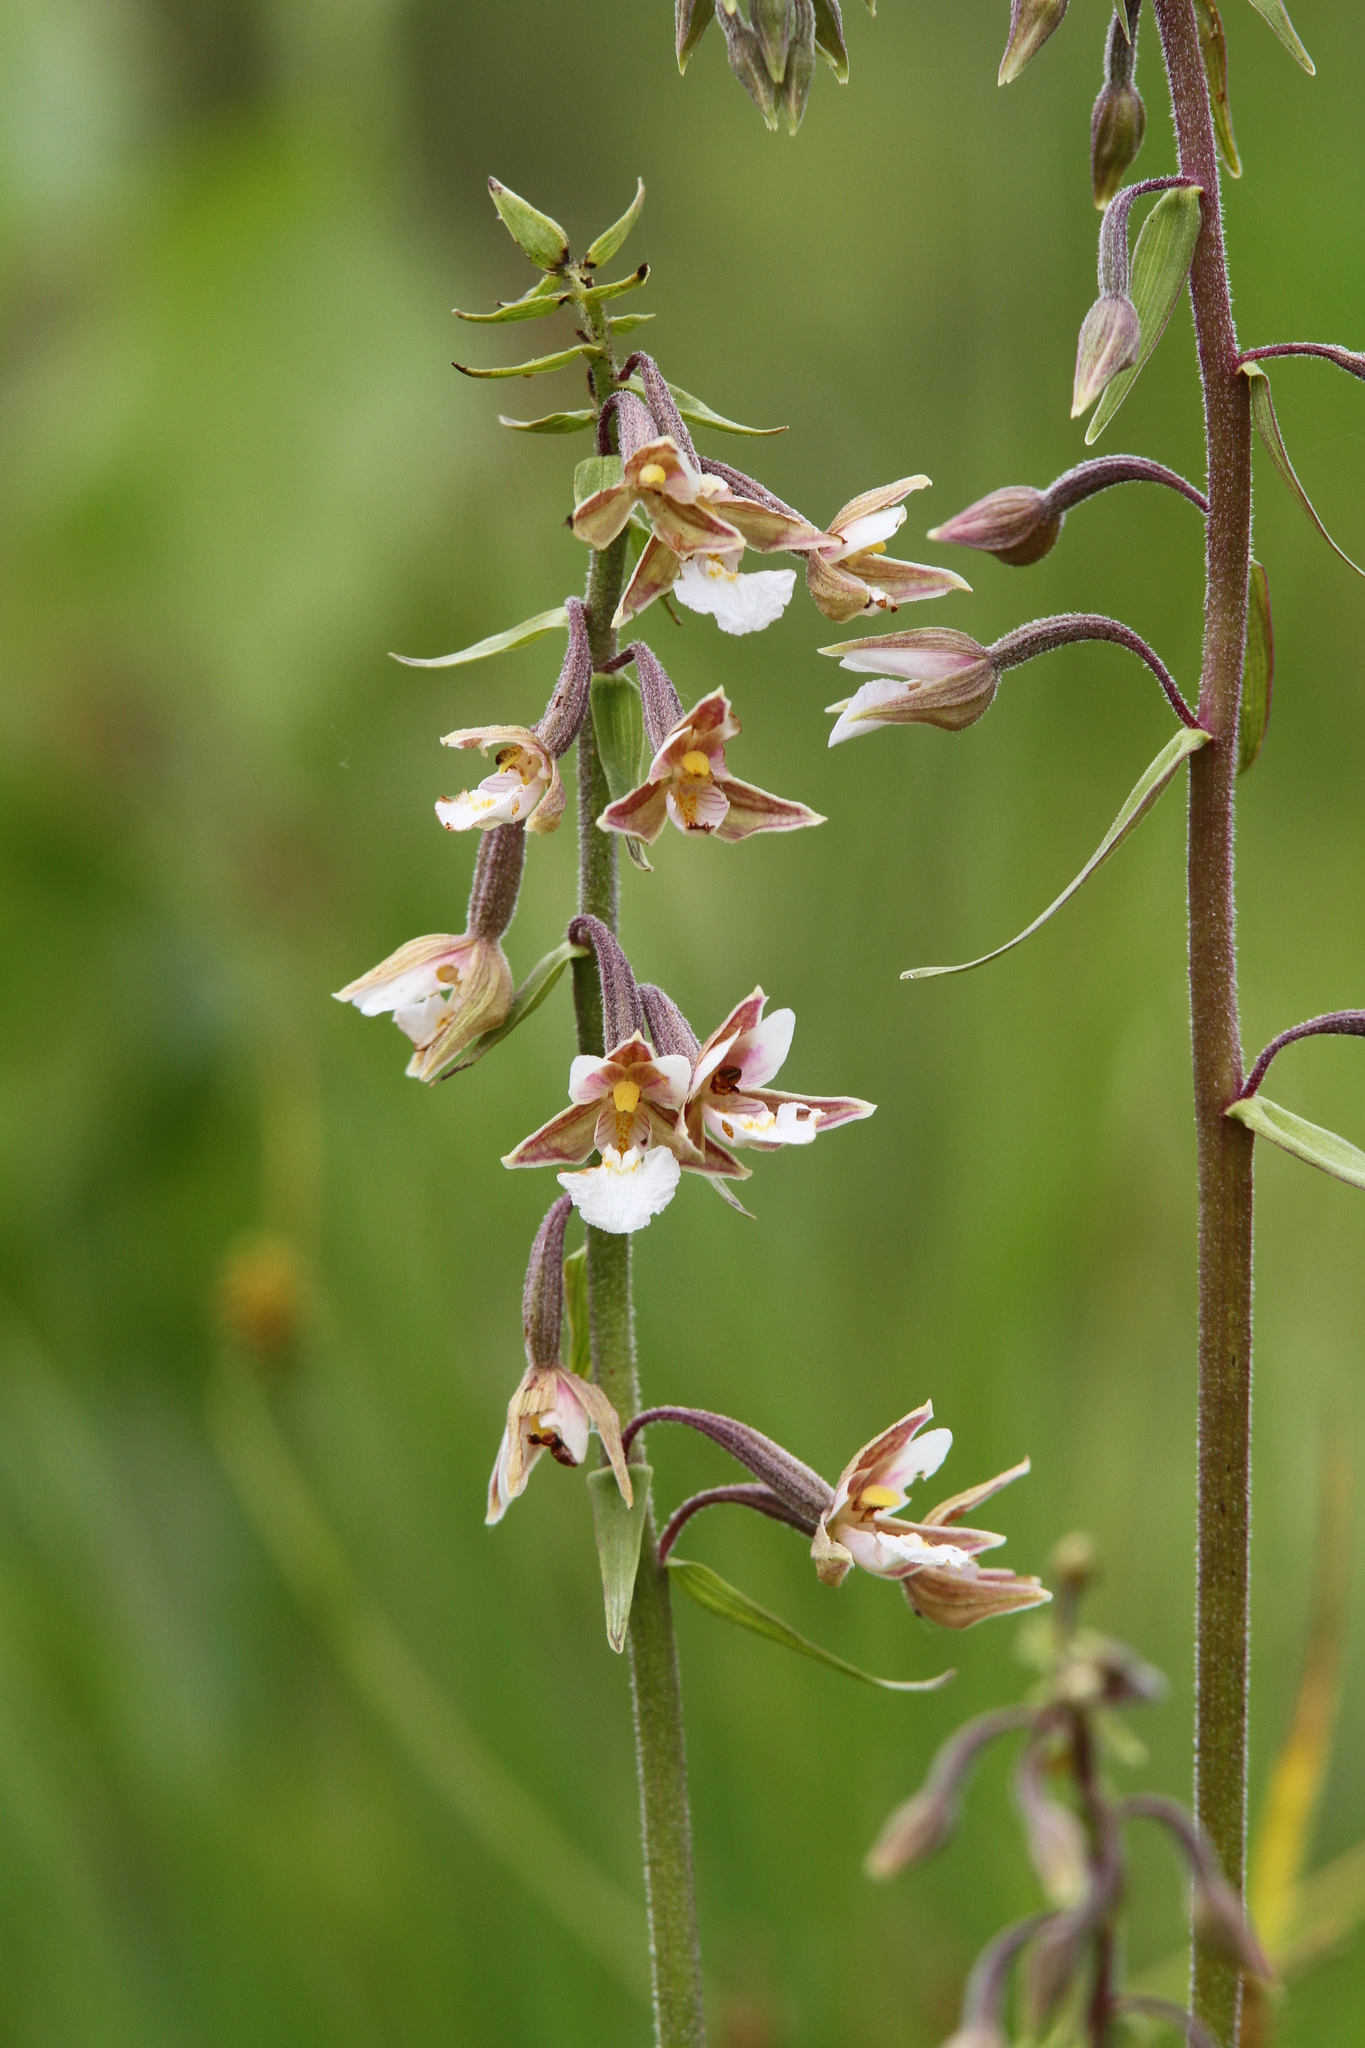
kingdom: Plantae
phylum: Tracheophyta
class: Liliopsida
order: Asparagales
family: Orchidaceae
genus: Epipactis
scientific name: Epipactis palustris
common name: Marsh helleborine
